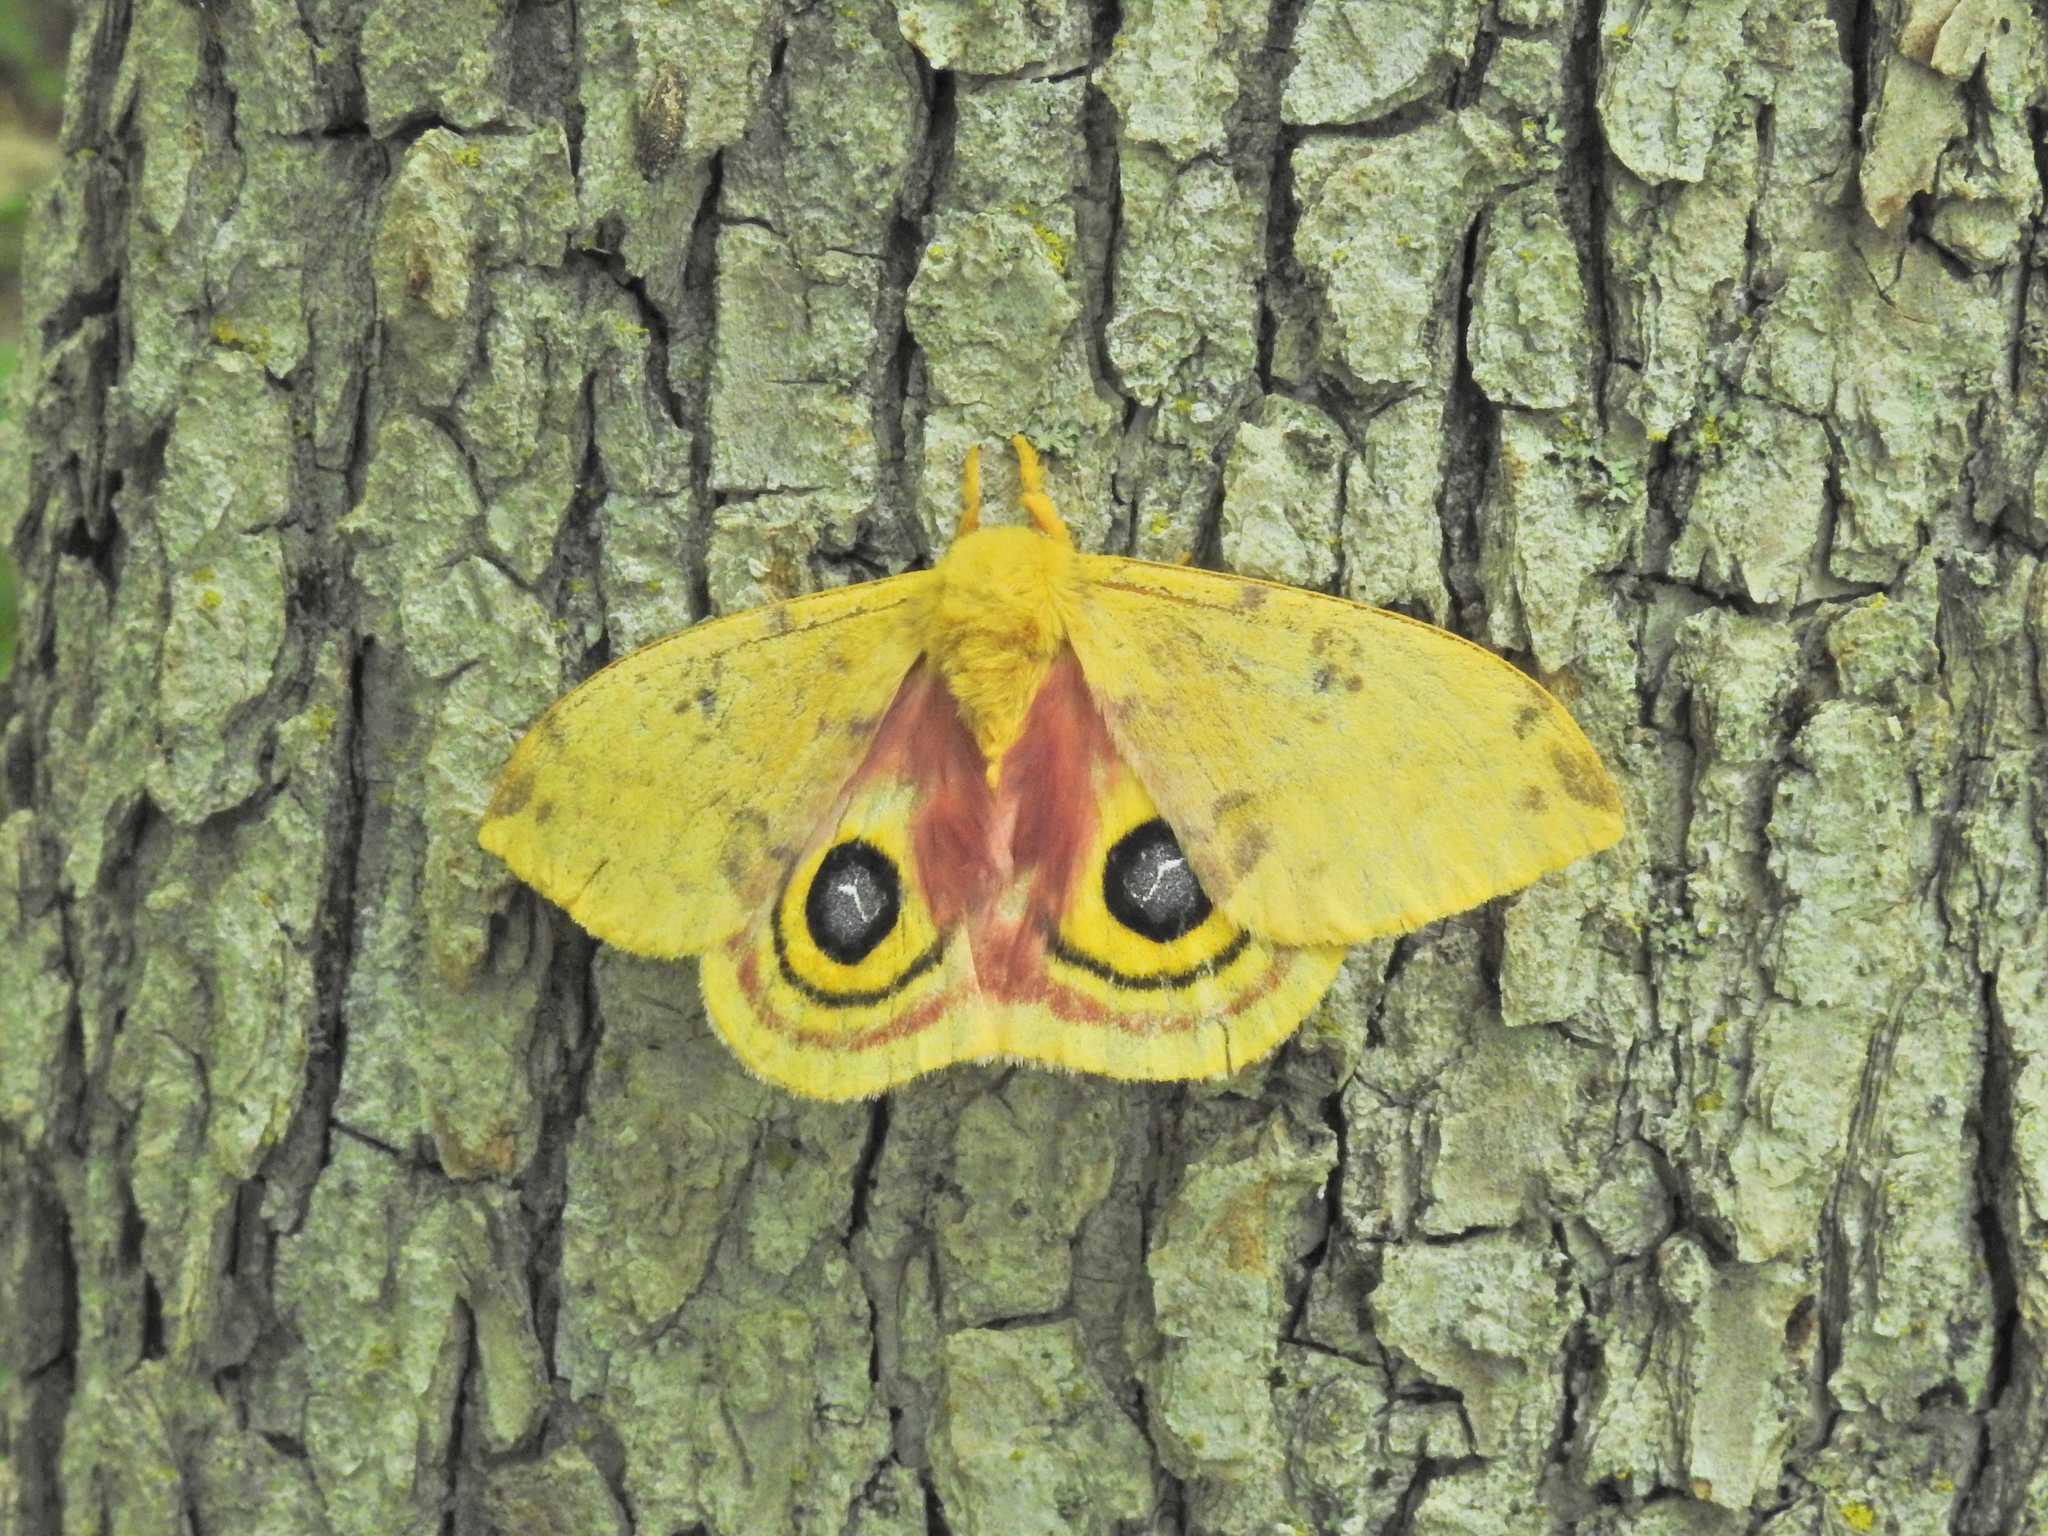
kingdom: Animalia
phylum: Arthropoda
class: Insecta
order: Lepidoptera
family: Saturniidae
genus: Automeris
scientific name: Automeris io
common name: Io moth
